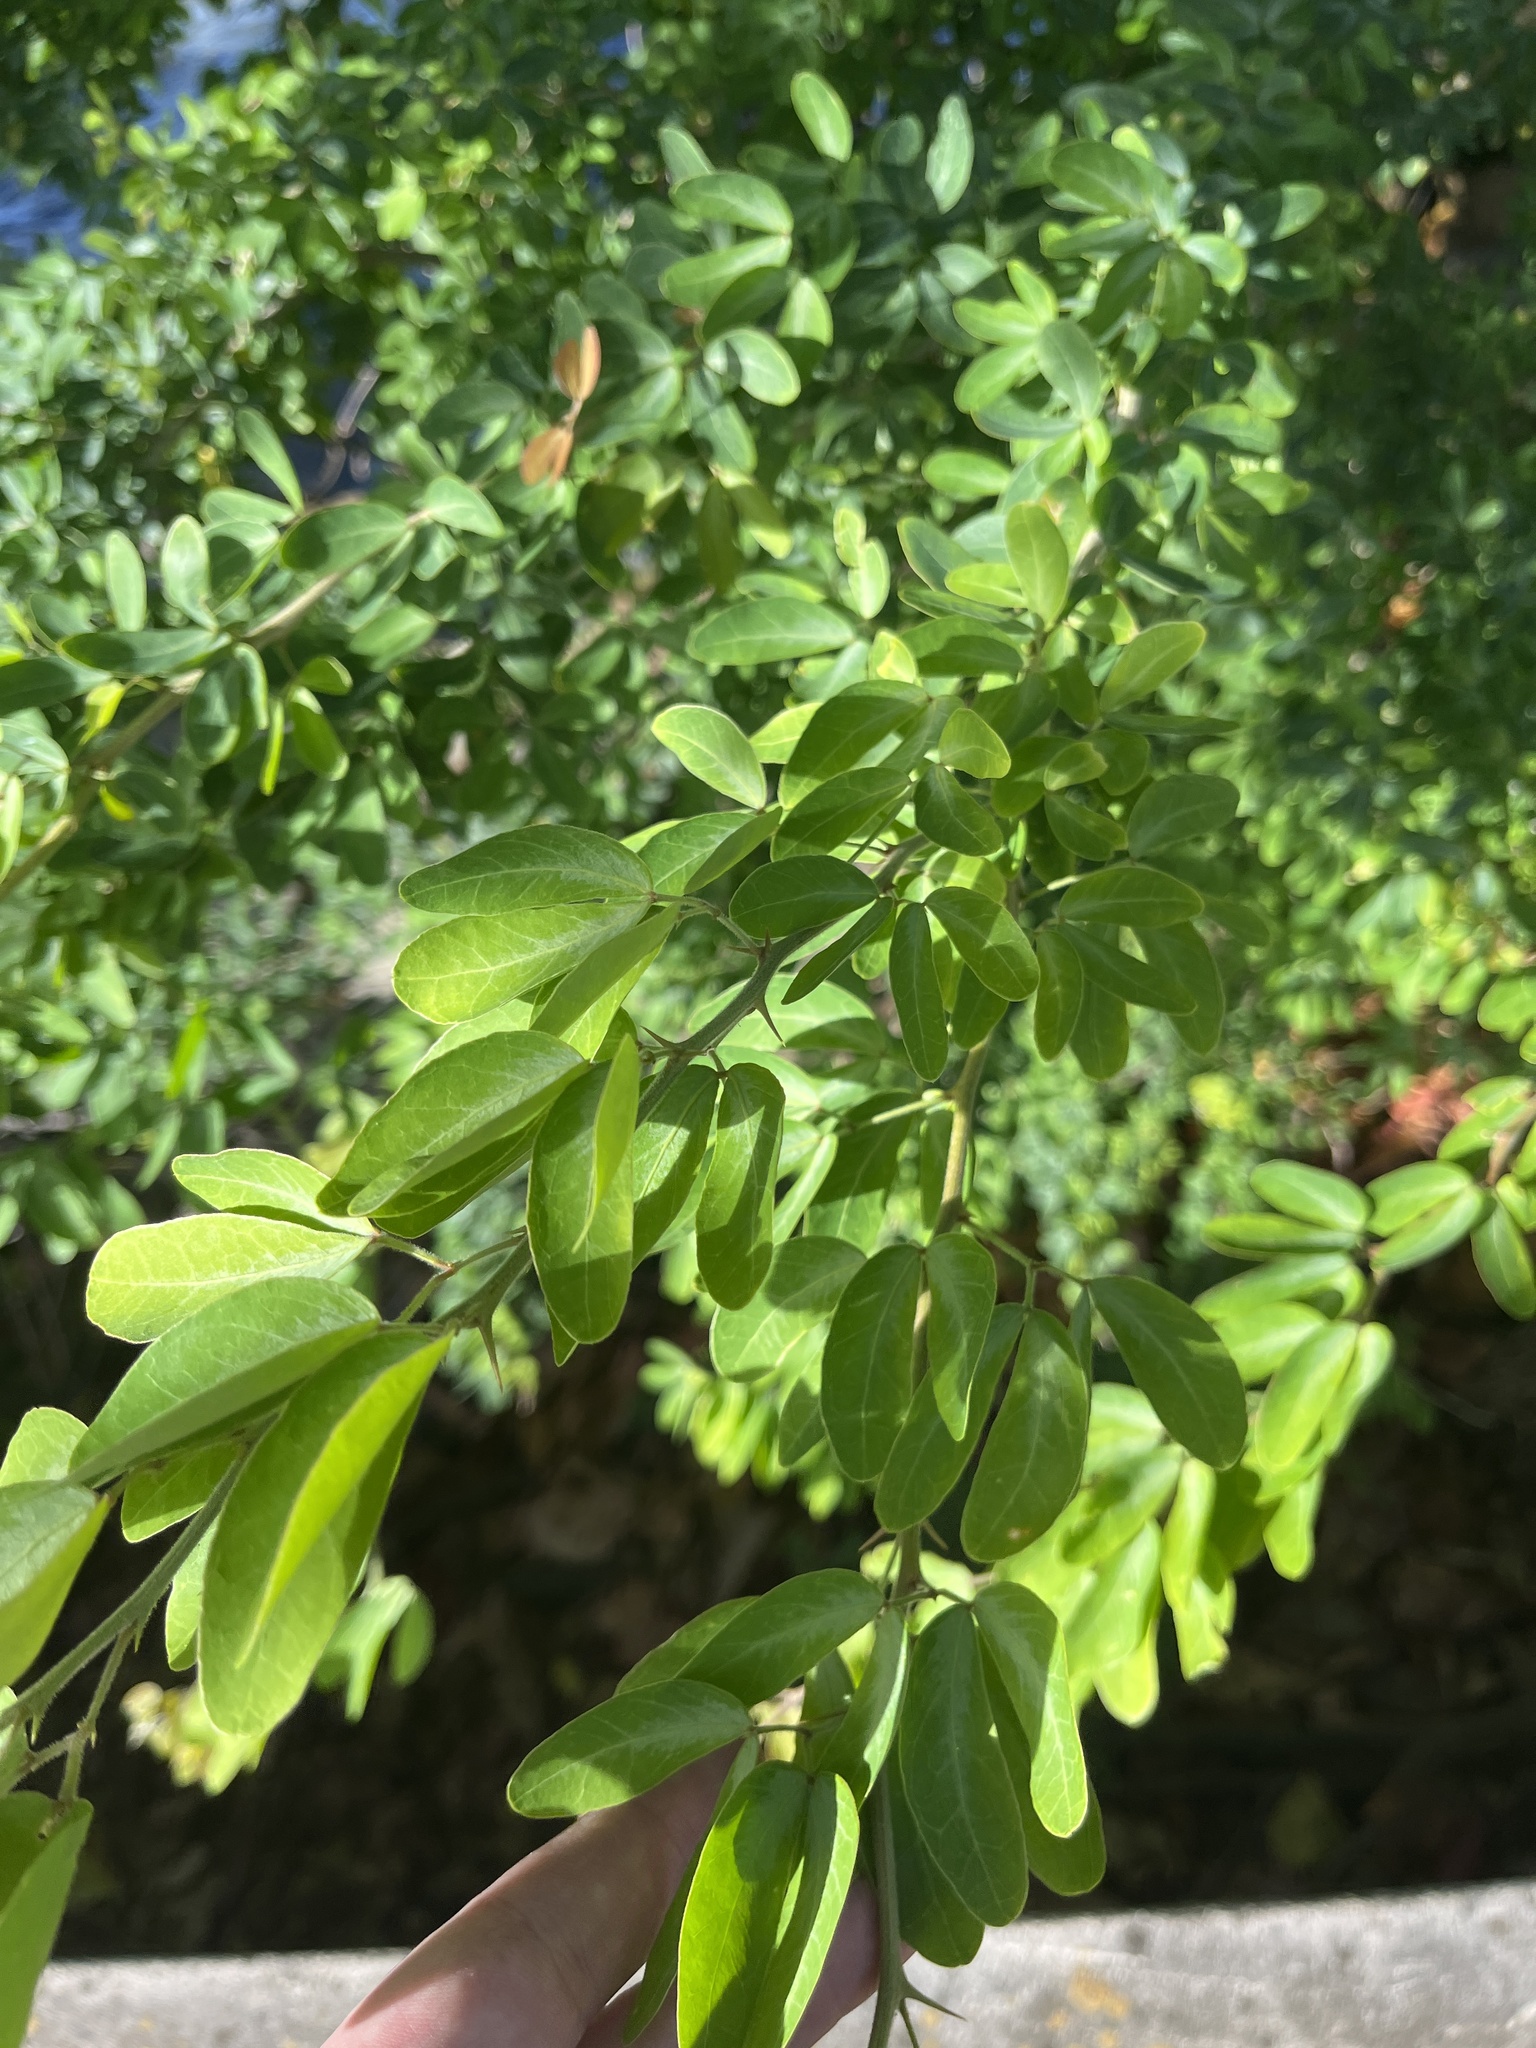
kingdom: Plantae
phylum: Tracheophyta
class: Magnoliopsida
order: Fabales
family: Fabaceae
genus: Pithecellobium
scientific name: Pithecellobium dulce
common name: Monkeypod
